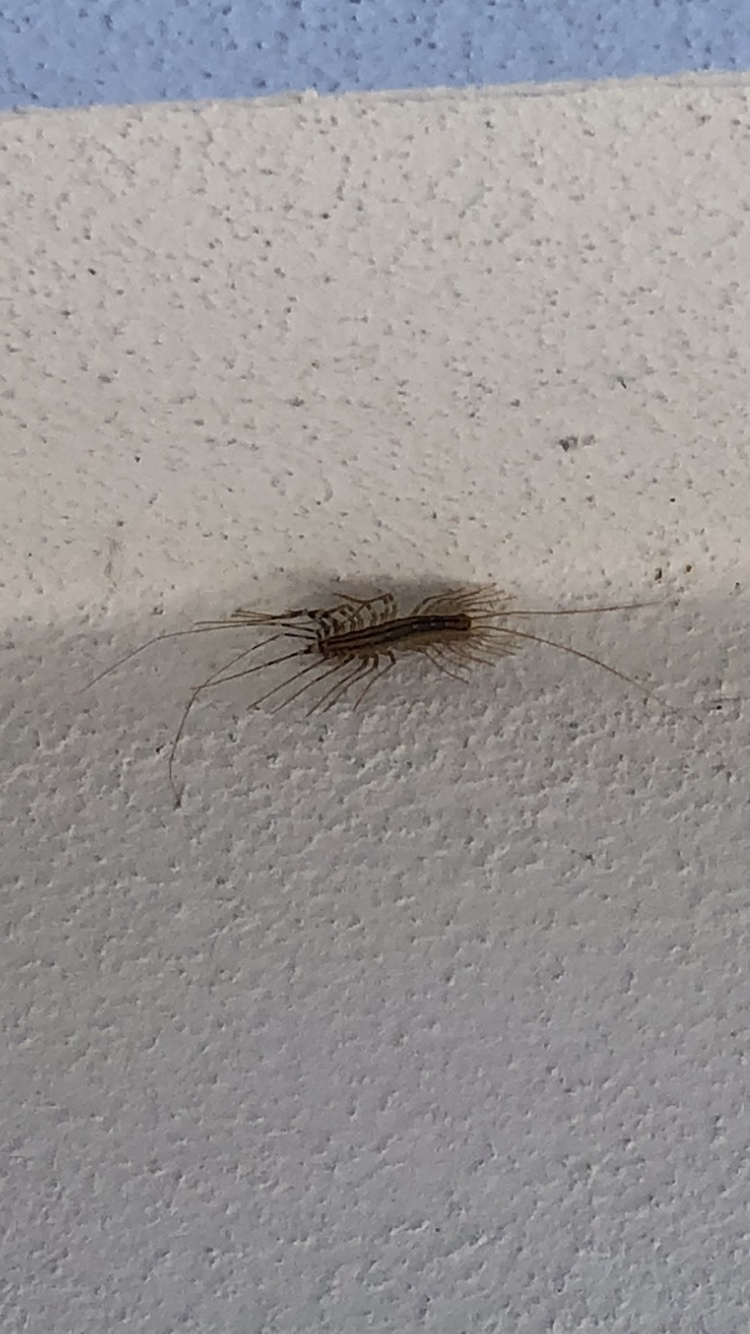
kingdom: Animalia
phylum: Arthropoda
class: Chilopoda
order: Scutigeromorpha
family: Scutigeridae
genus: Scutigera
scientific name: Scutigera coleoptrata
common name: House centipede
